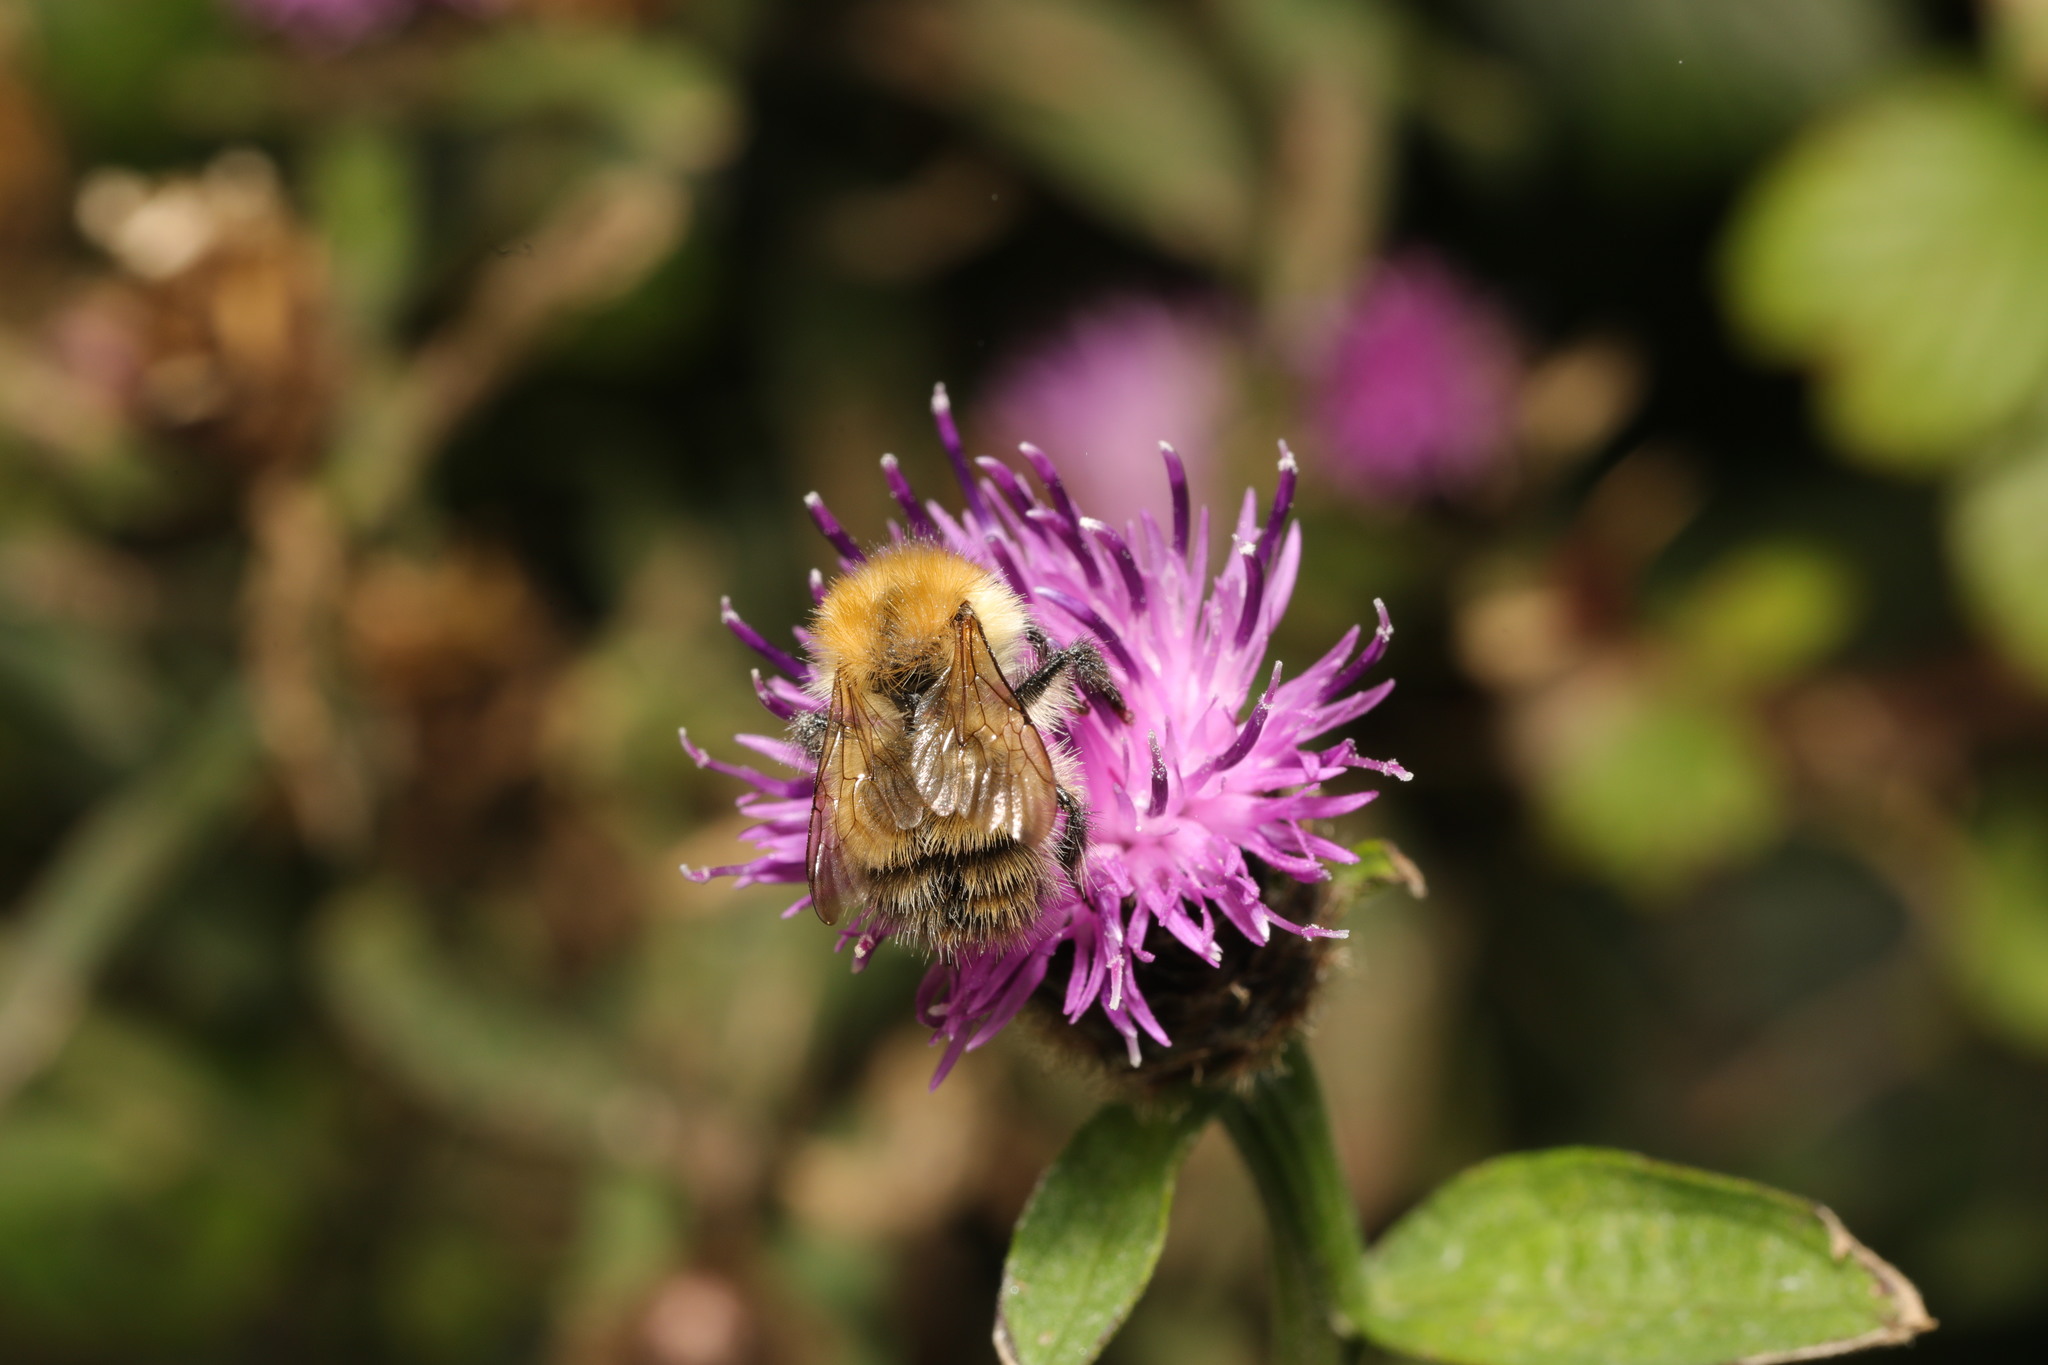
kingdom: Animalia
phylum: Arthropoda
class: Insecta
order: Hymenoptera
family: Apidae
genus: Bombus
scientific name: Bombus pascuorum
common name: Common carder bee
